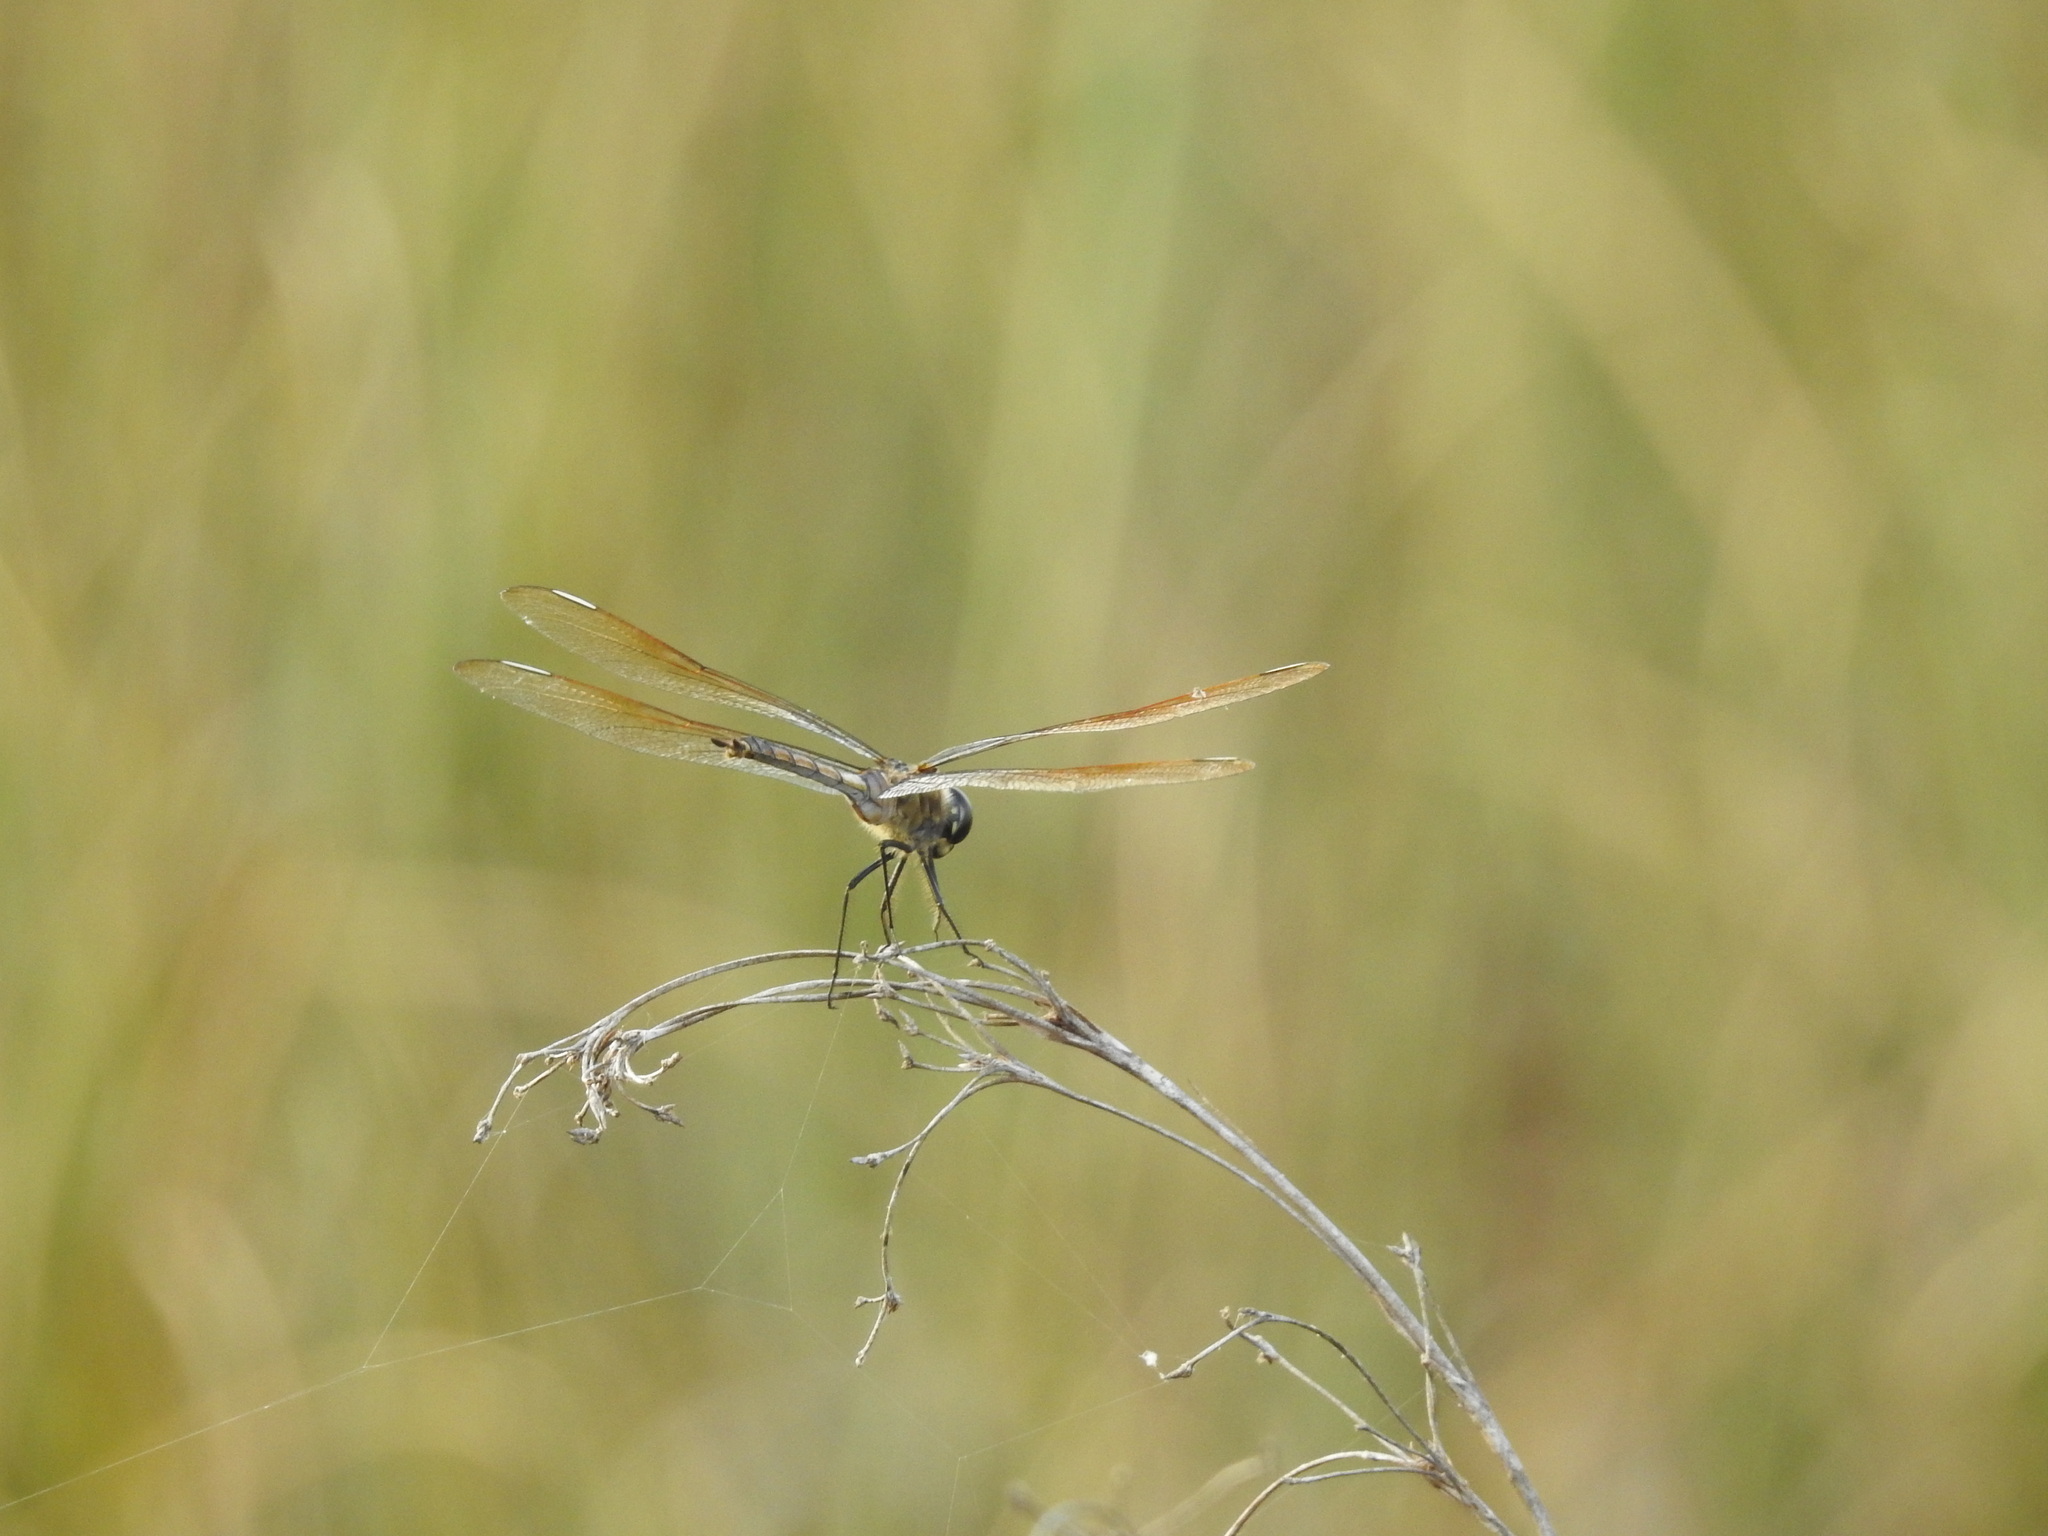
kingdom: Animalia
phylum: Arthropoda
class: Insecta
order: Odonata
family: Libellulidae
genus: Brachymesia
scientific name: Brachymesia gravida
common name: Four-spotted pennant
